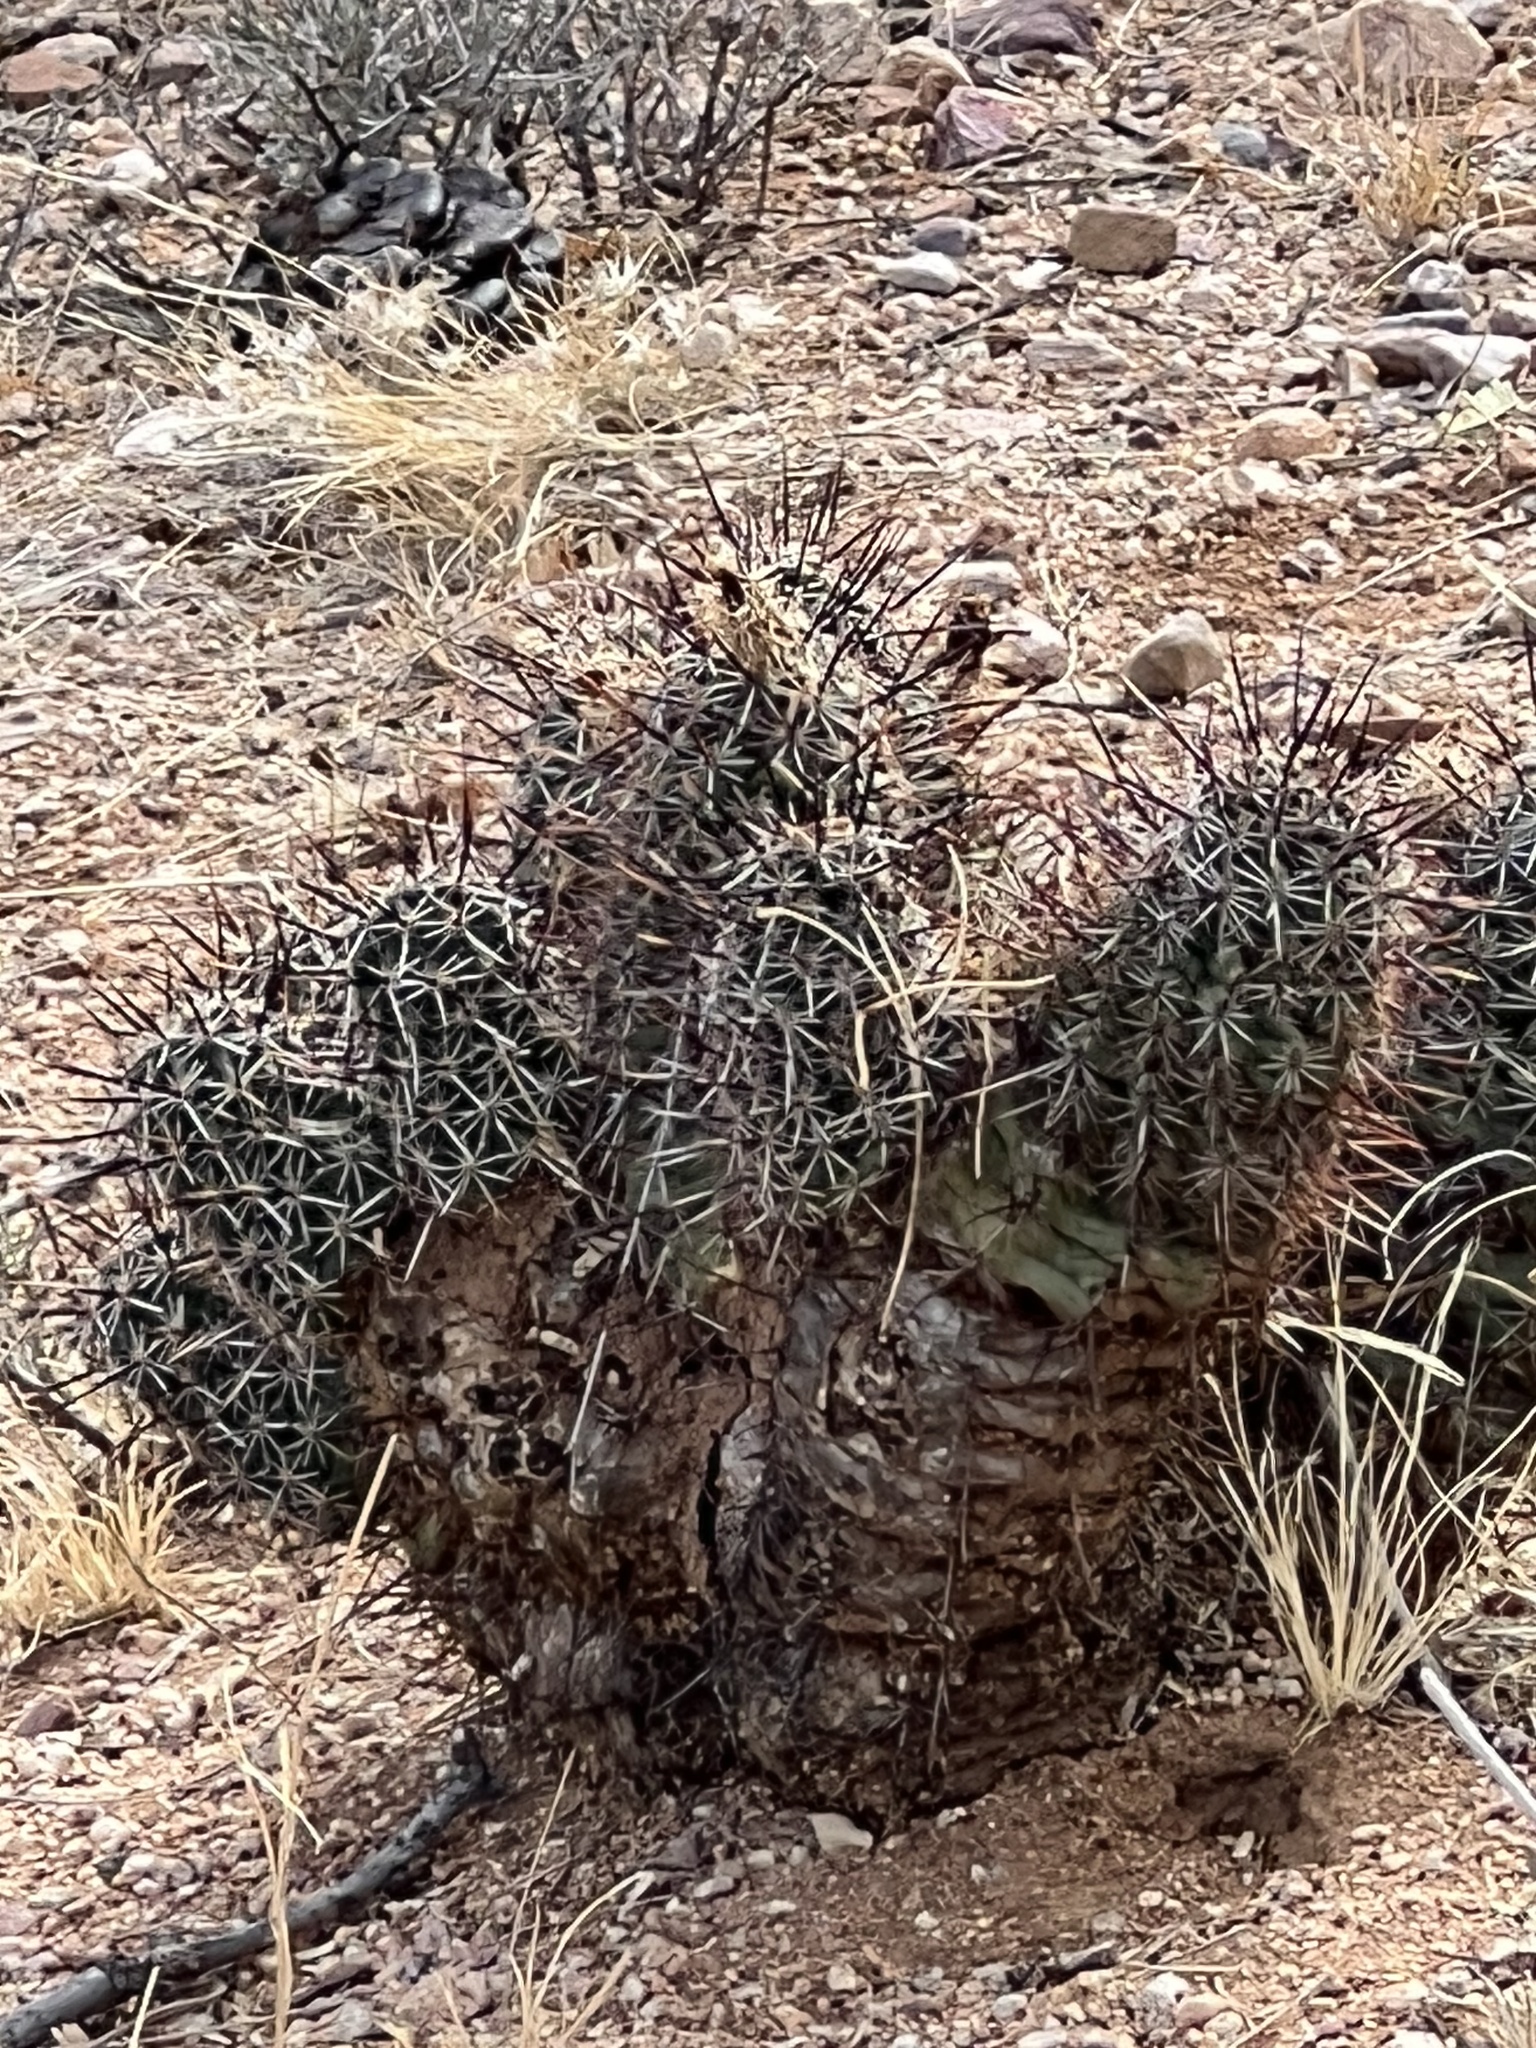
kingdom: Plantae
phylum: Tracheophyta
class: Magnoliopsida
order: Caryophyllales
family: Cactaceae
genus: Echinocereus
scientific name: Echinocereus fasciculatus
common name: Bundle hedgehog
